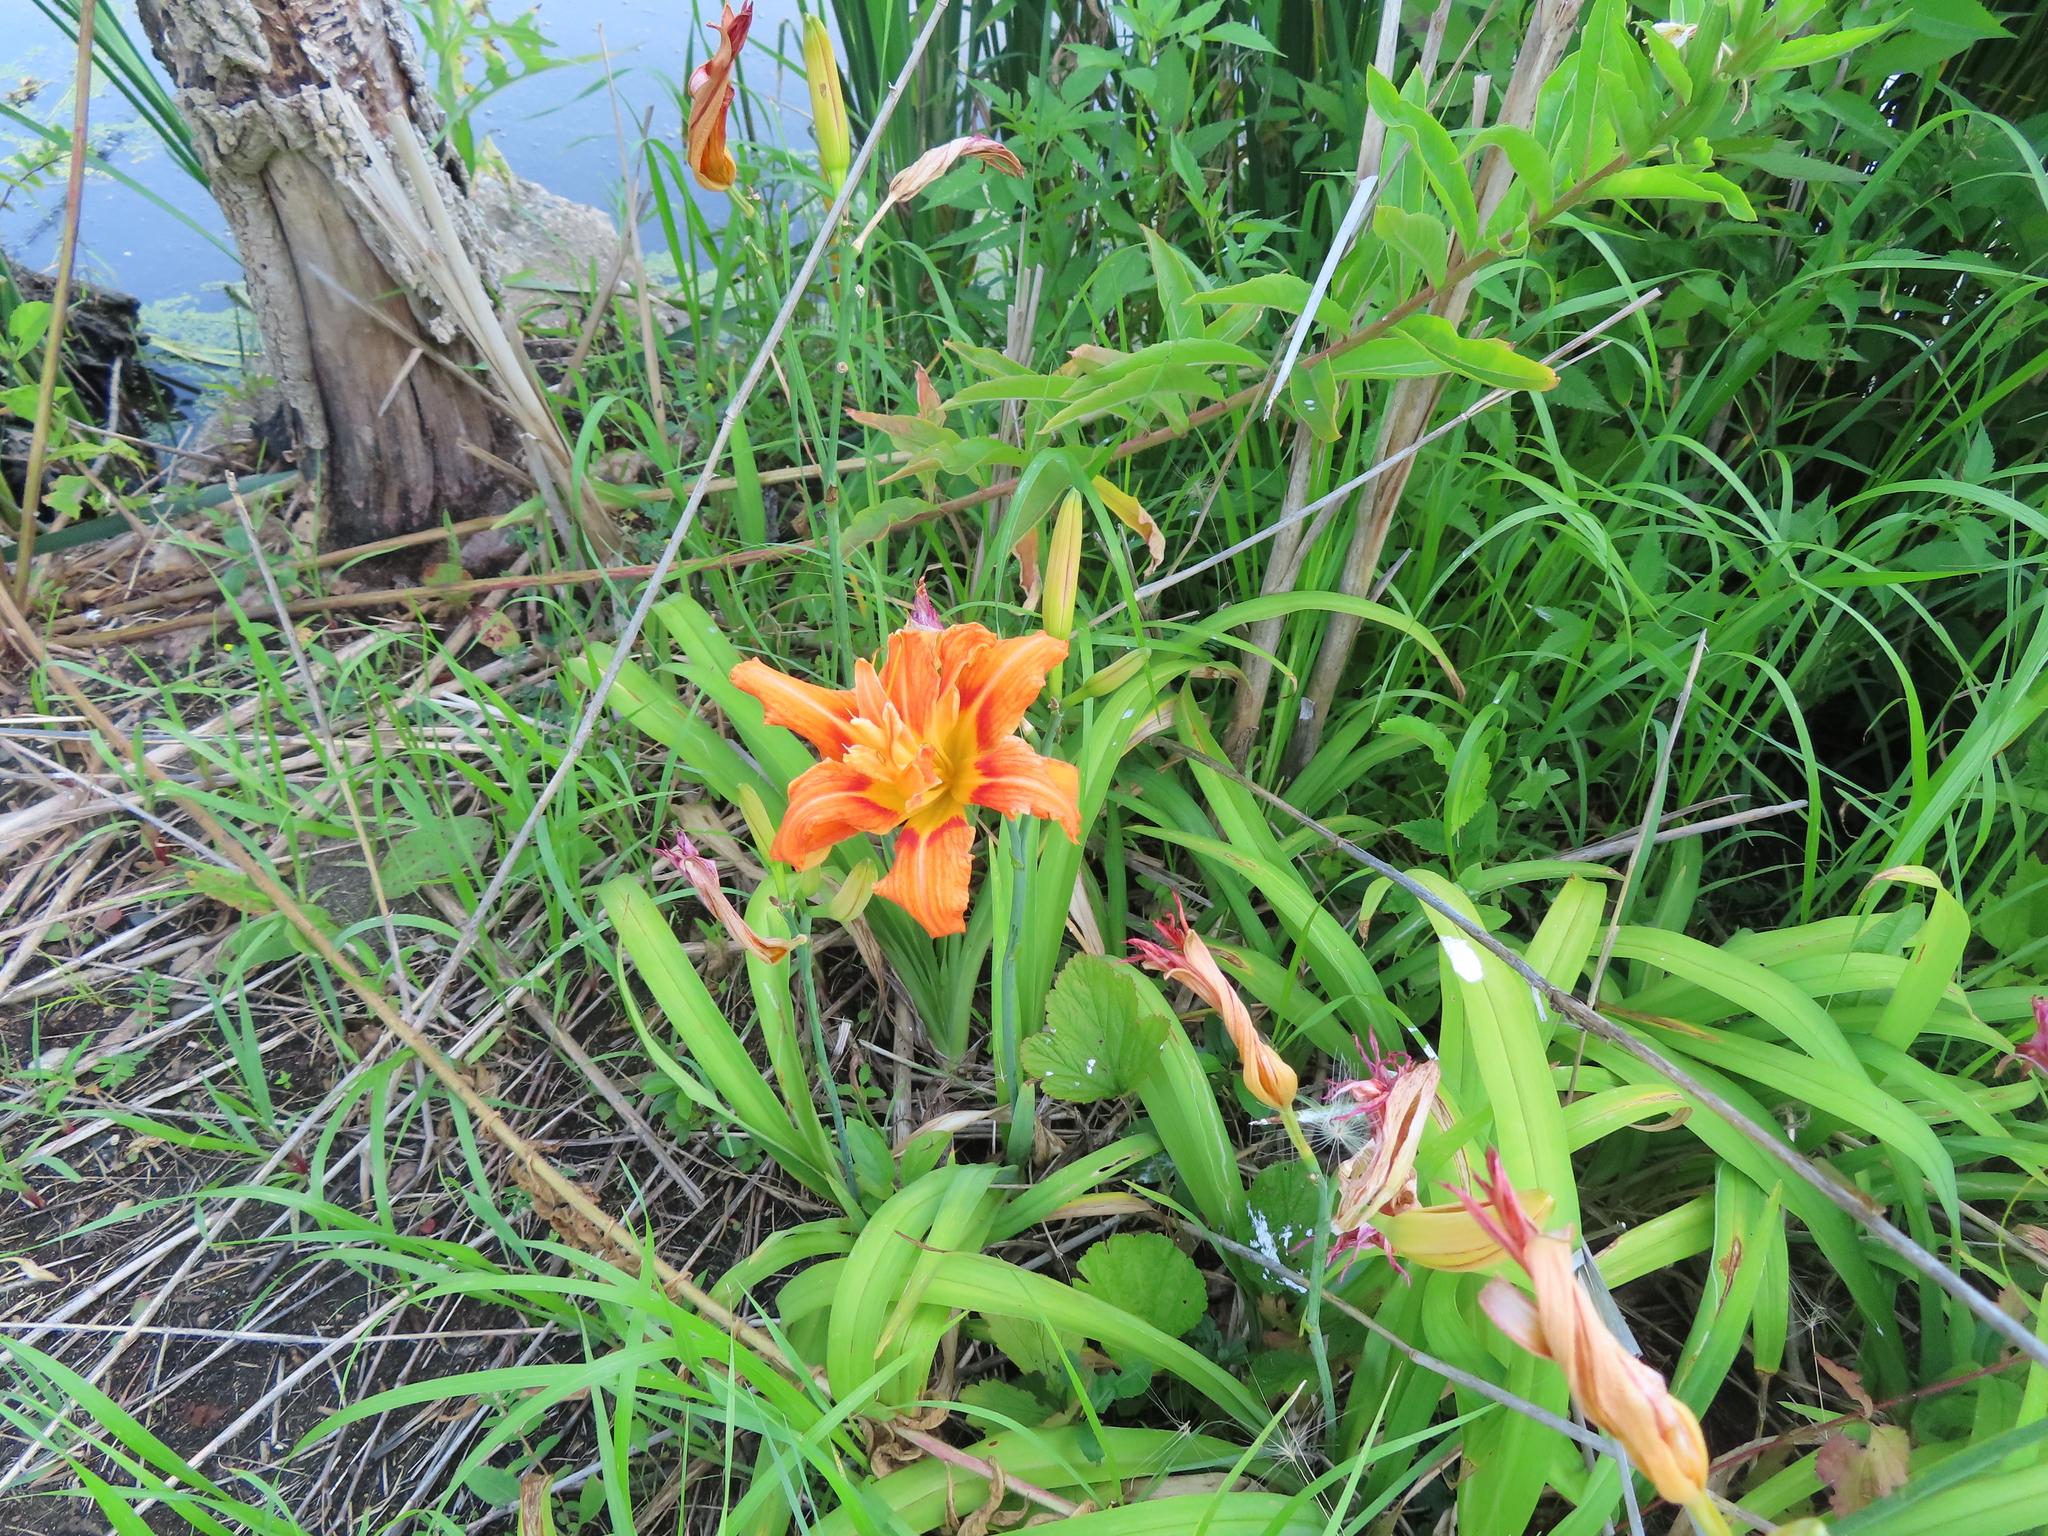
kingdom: Plantae
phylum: Tracheophyta
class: Liliopsida
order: Asparagales
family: Asphodelaceae
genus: Hemerocallis
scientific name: Hemerocallis fulva
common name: Orange day-lily
